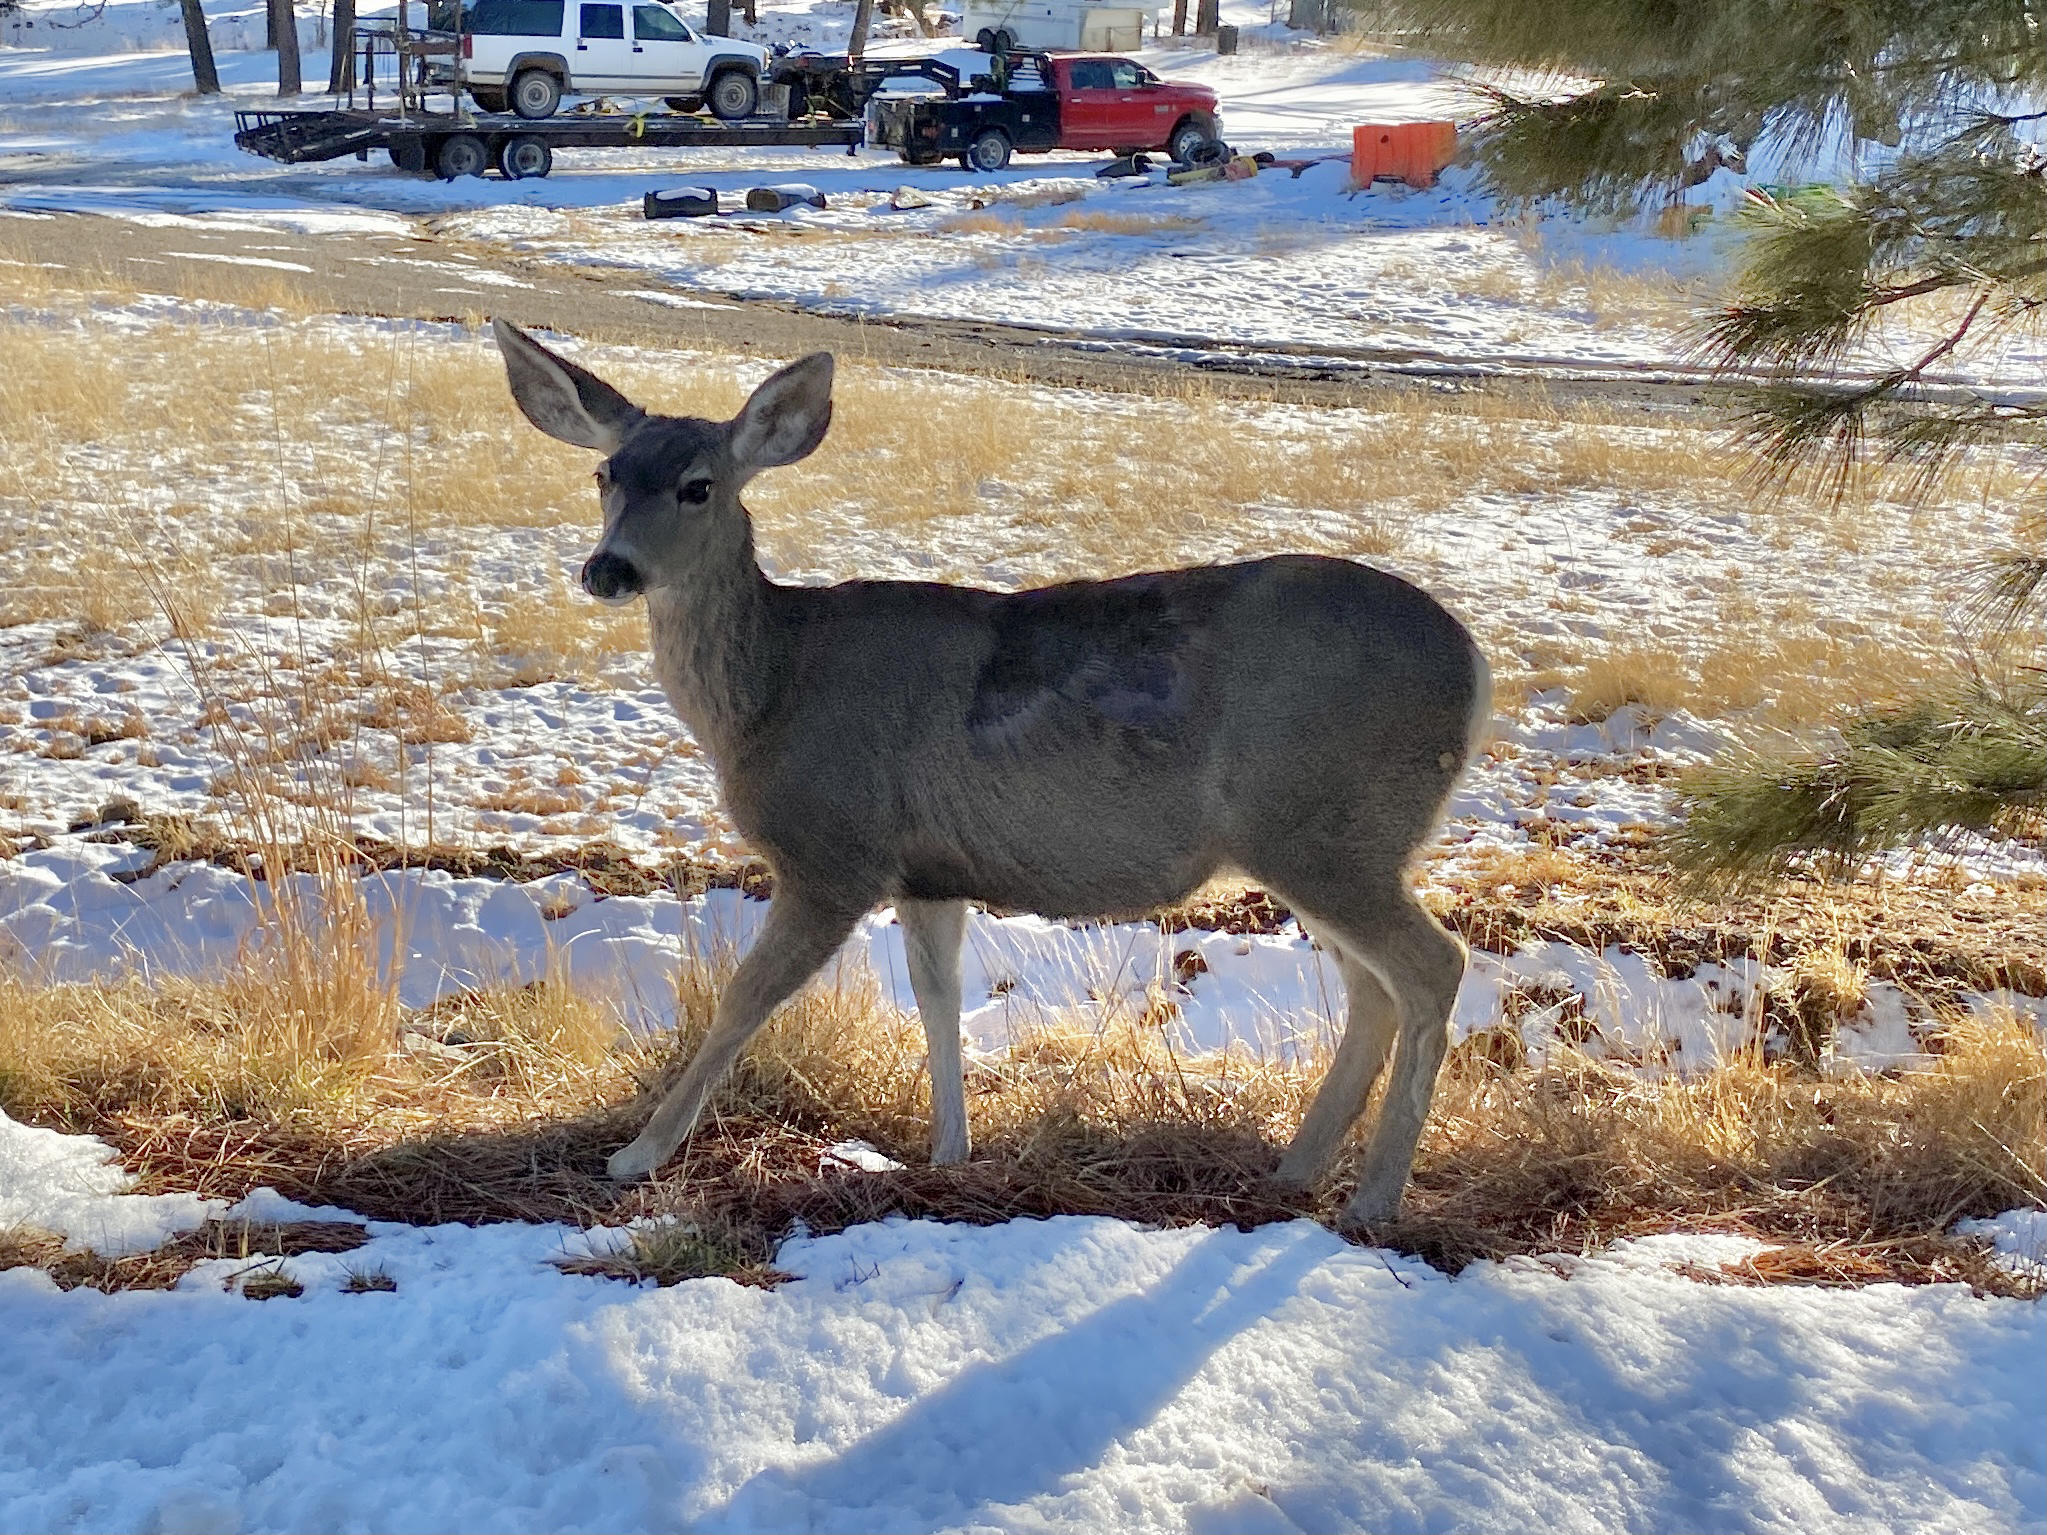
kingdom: Animalia
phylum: Chordata
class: Mammalia
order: Artiodactyla
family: Cervidae
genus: Odocoileus
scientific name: Odocoileus hemionus
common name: Mule deer
